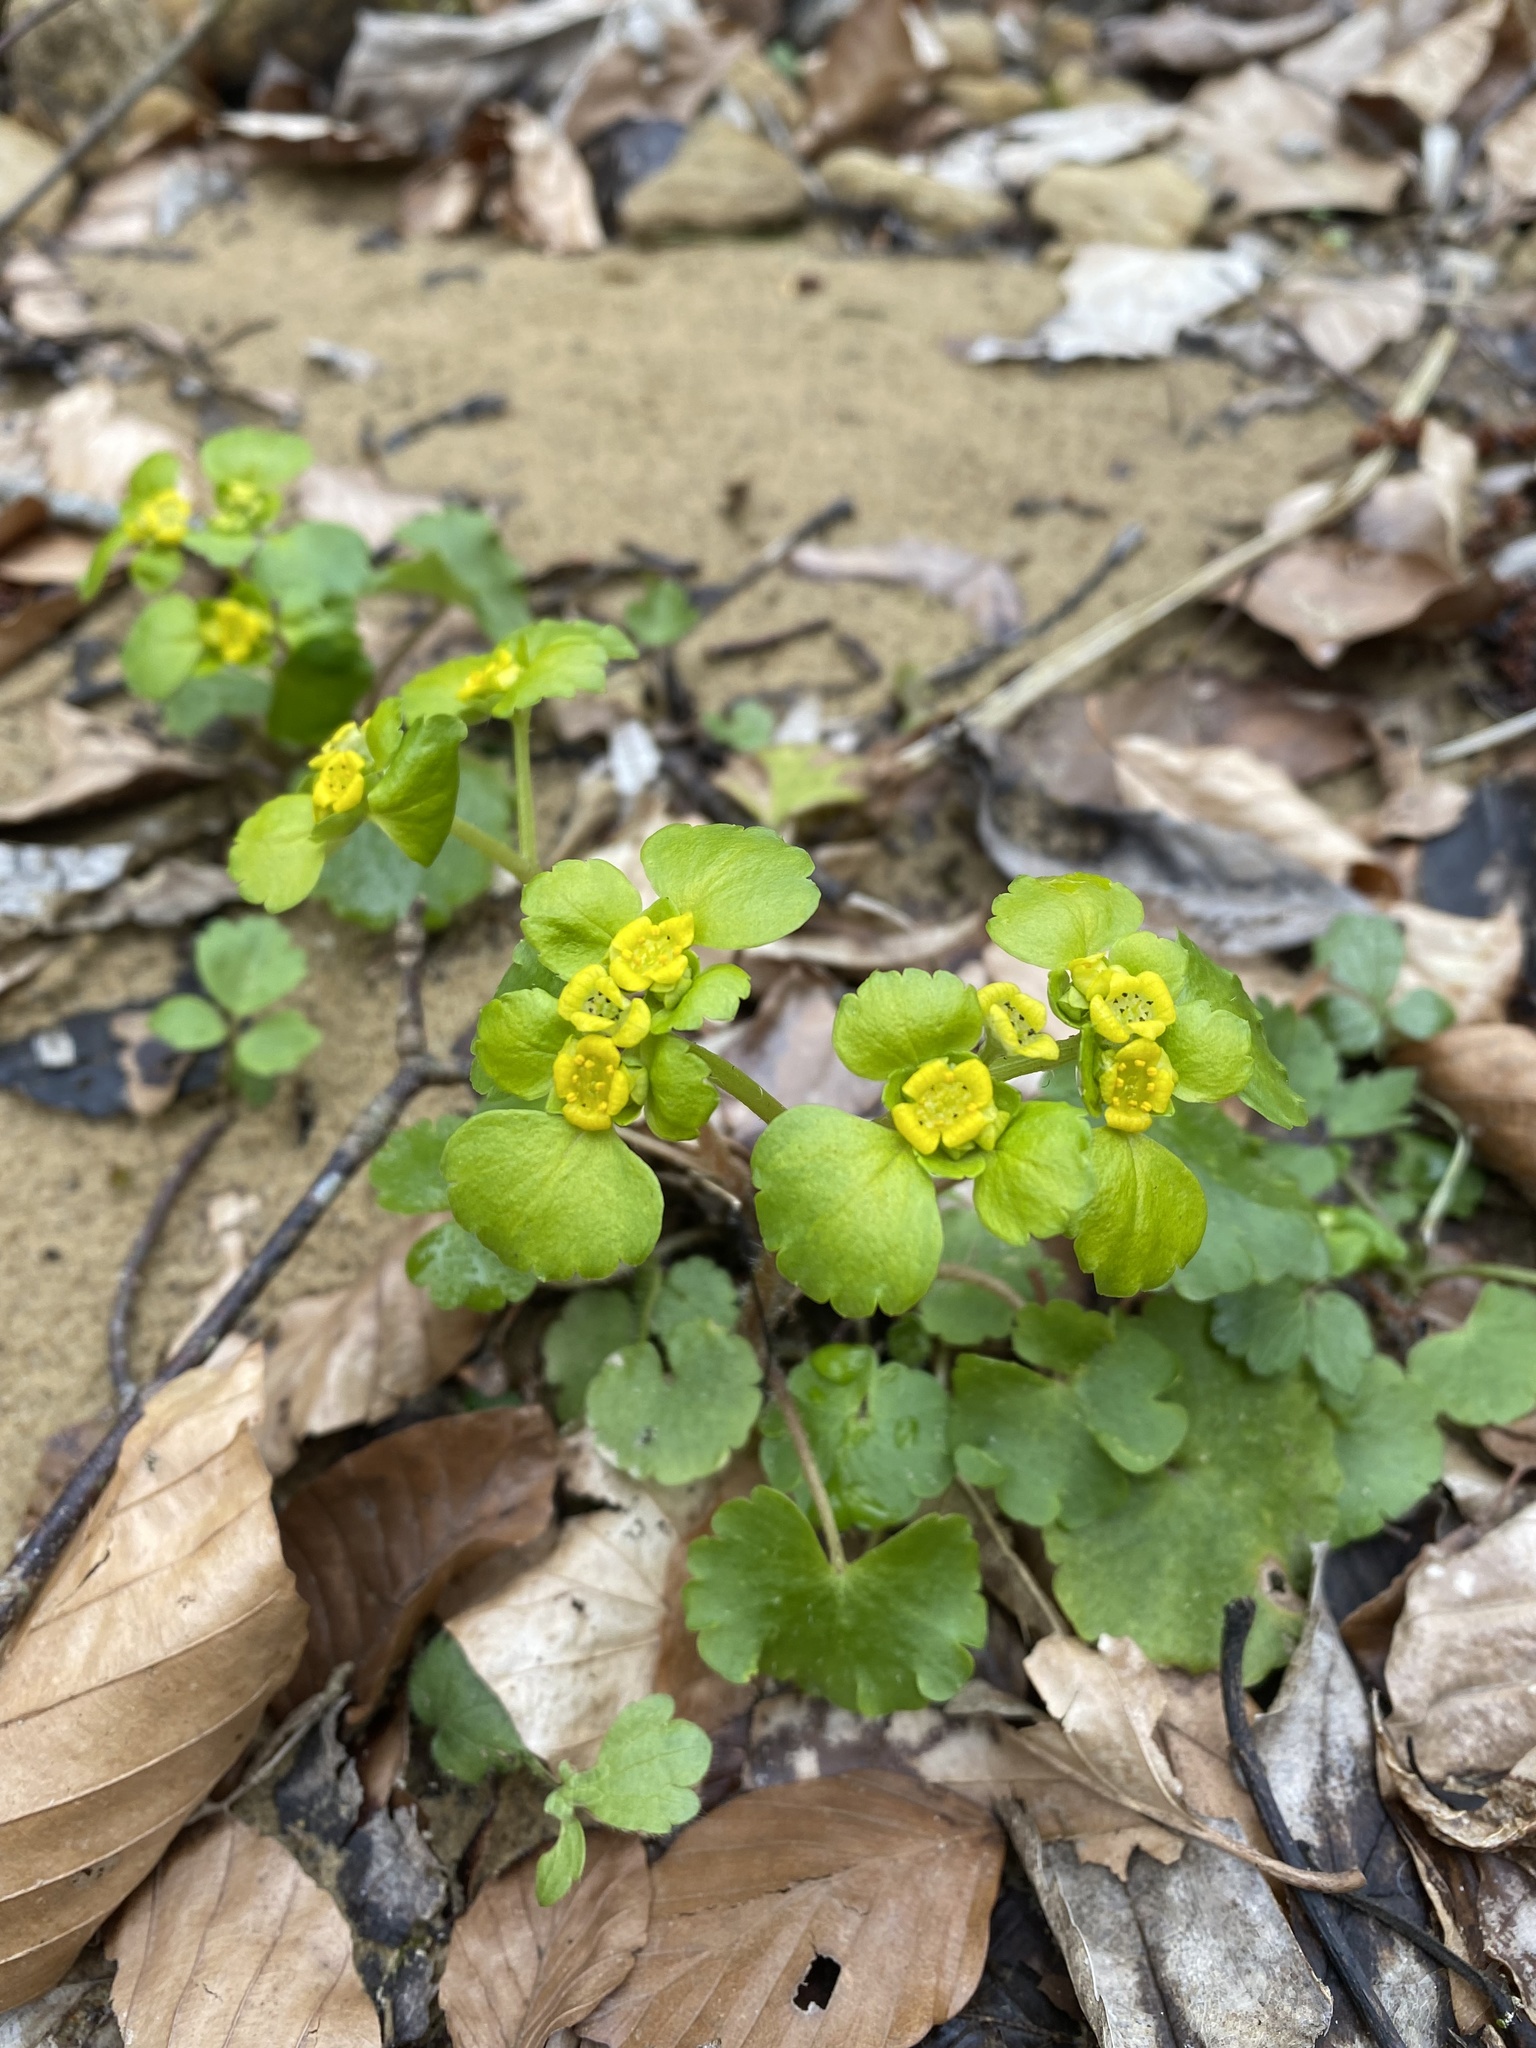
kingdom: Plantae
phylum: Tracheophyta
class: Magnoliopsida
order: Saxifragales
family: Saxifragaceae
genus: Chrysosplenium
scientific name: Chrysosplenium alternifolium
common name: Alternate-leaved golden-saxifrage
